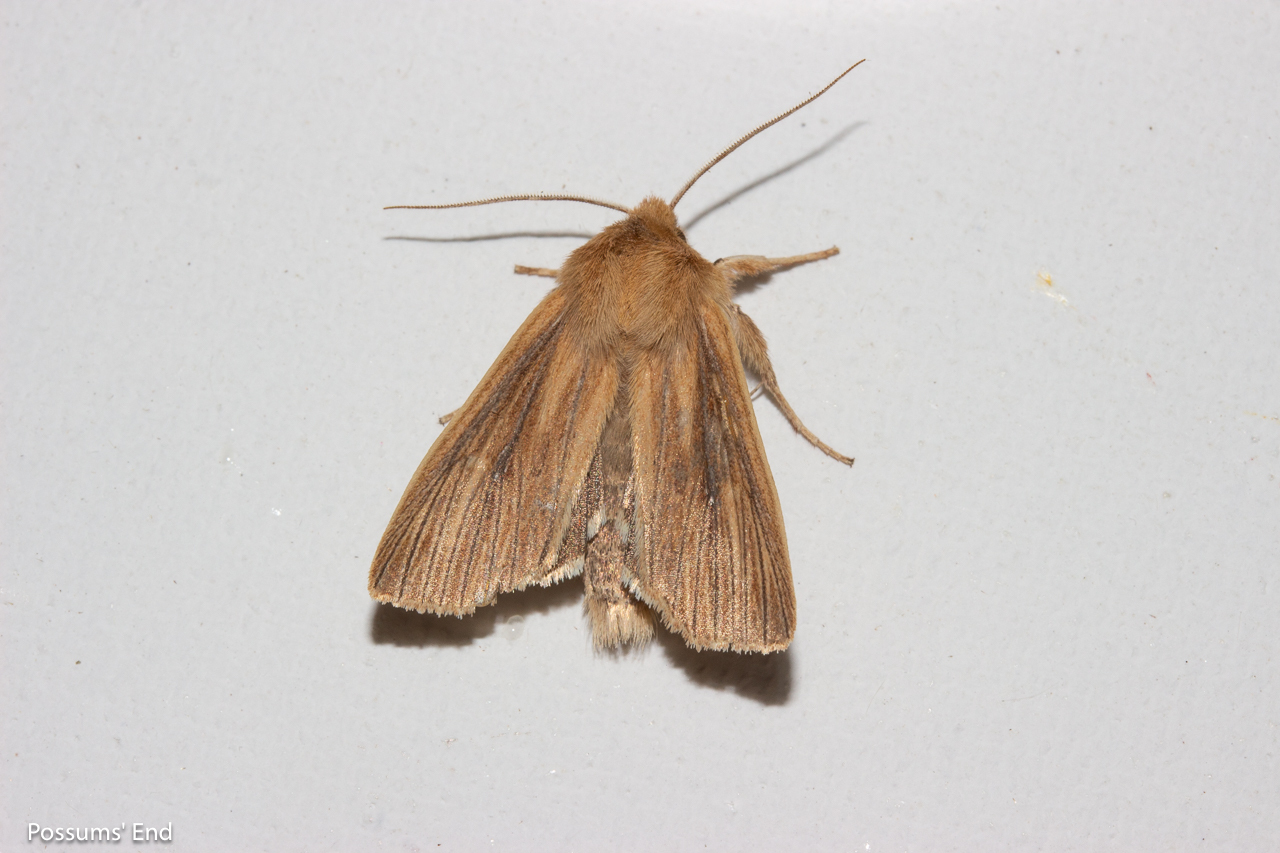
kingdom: Animalia
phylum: Arthropoda
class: Insecta
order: Lepidoptera
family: Noctuidae
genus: Ichneutica
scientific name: Ichneutica arotis
